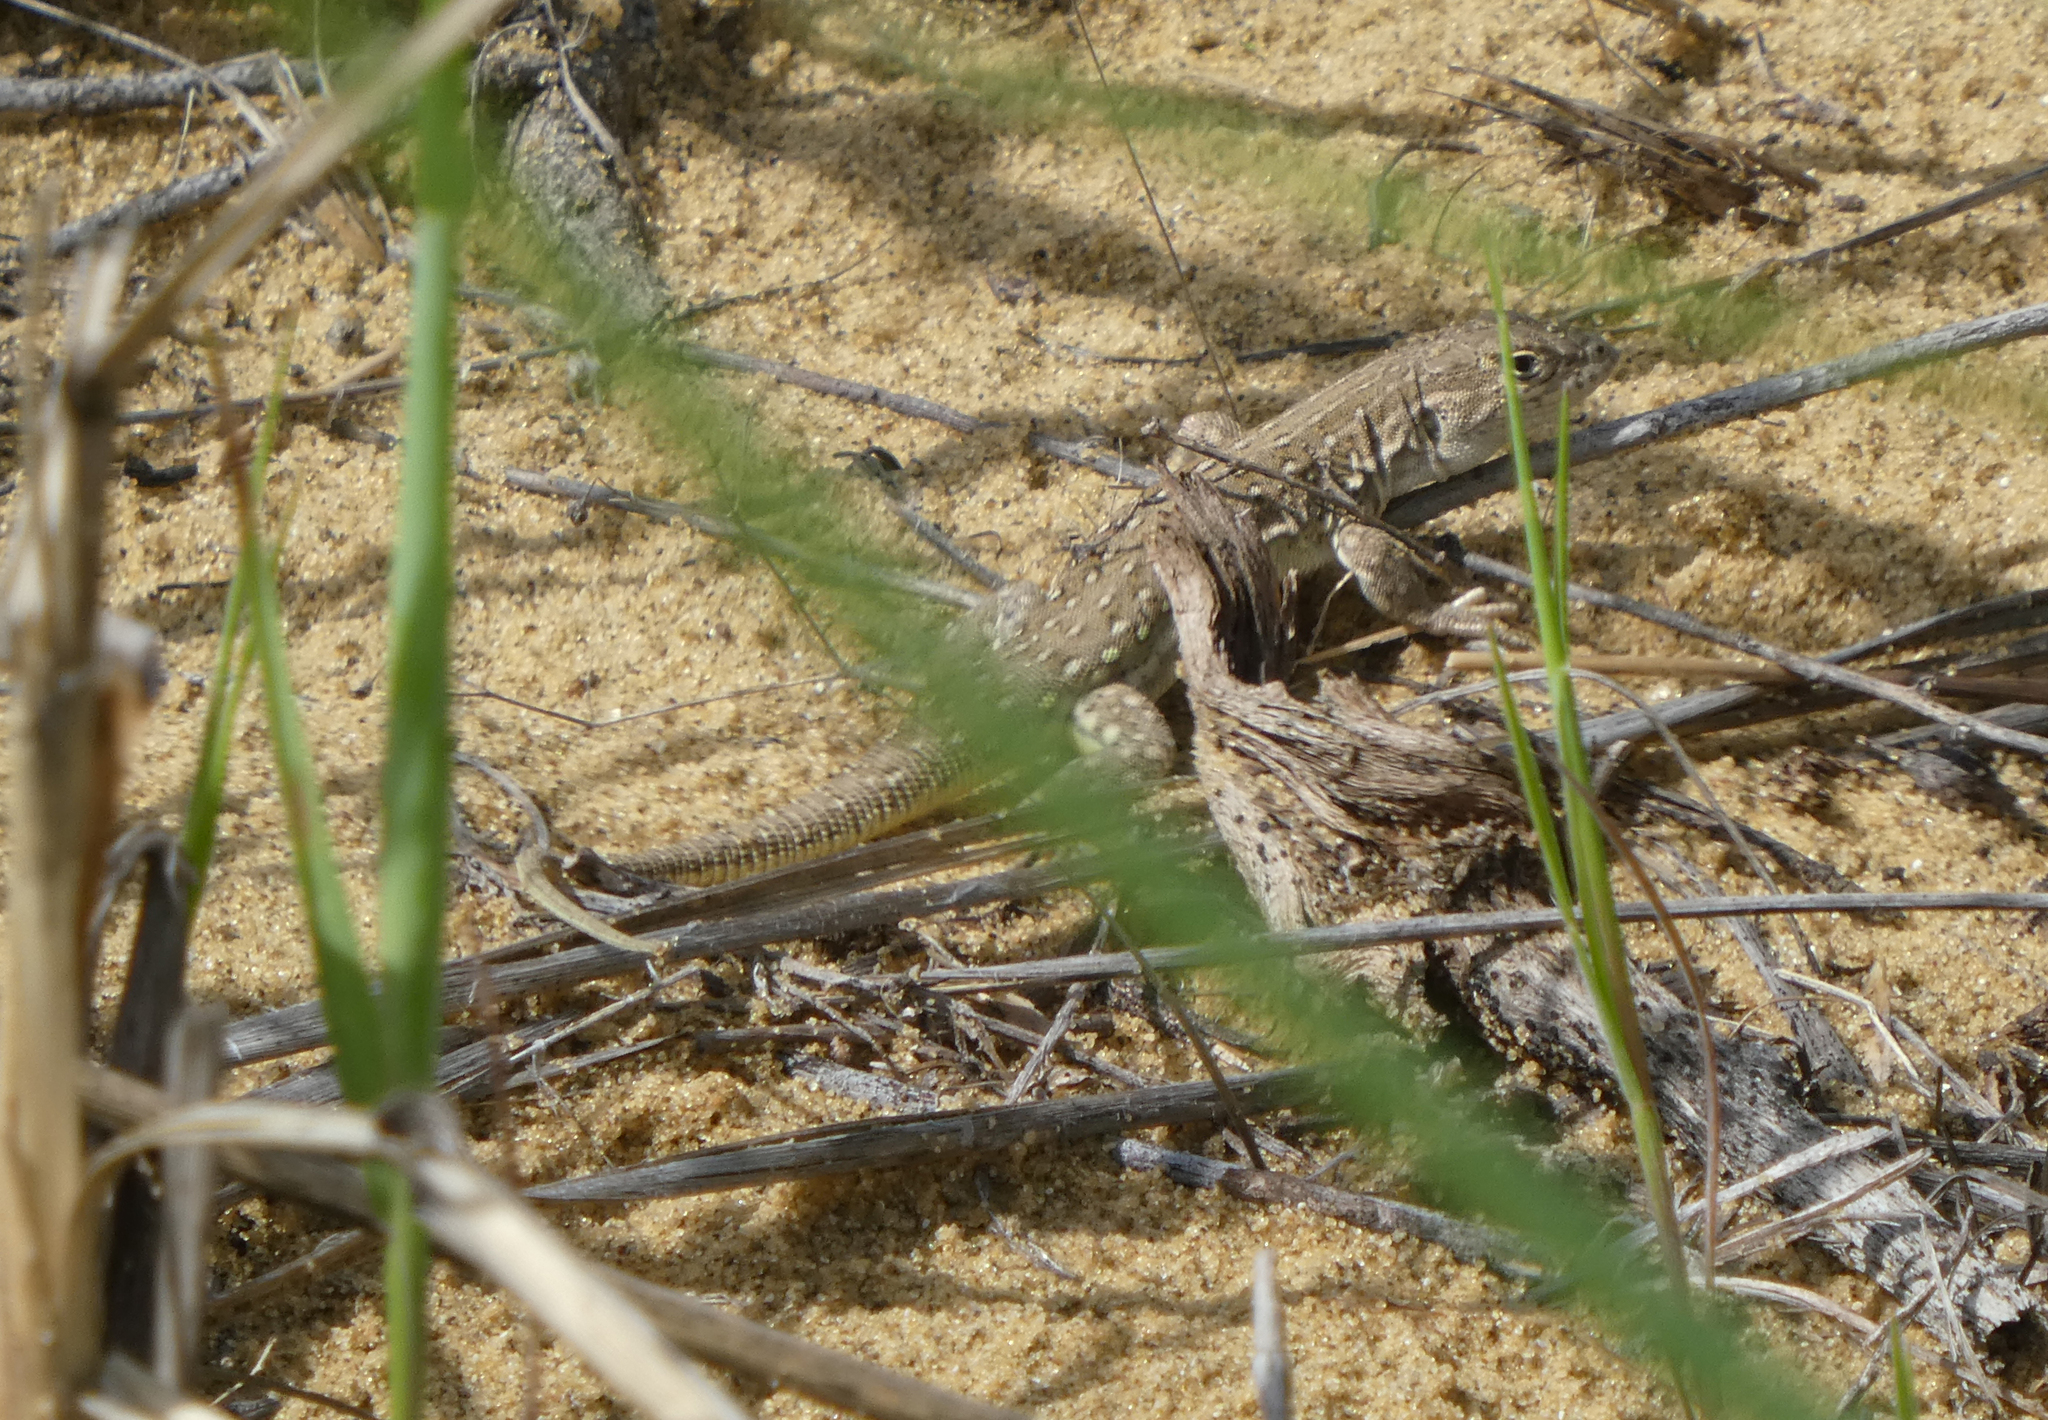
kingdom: Animalia
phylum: Chordata
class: Squamata
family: Lacertidae
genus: Eremias
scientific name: Eremias arguta
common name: Racerunner
